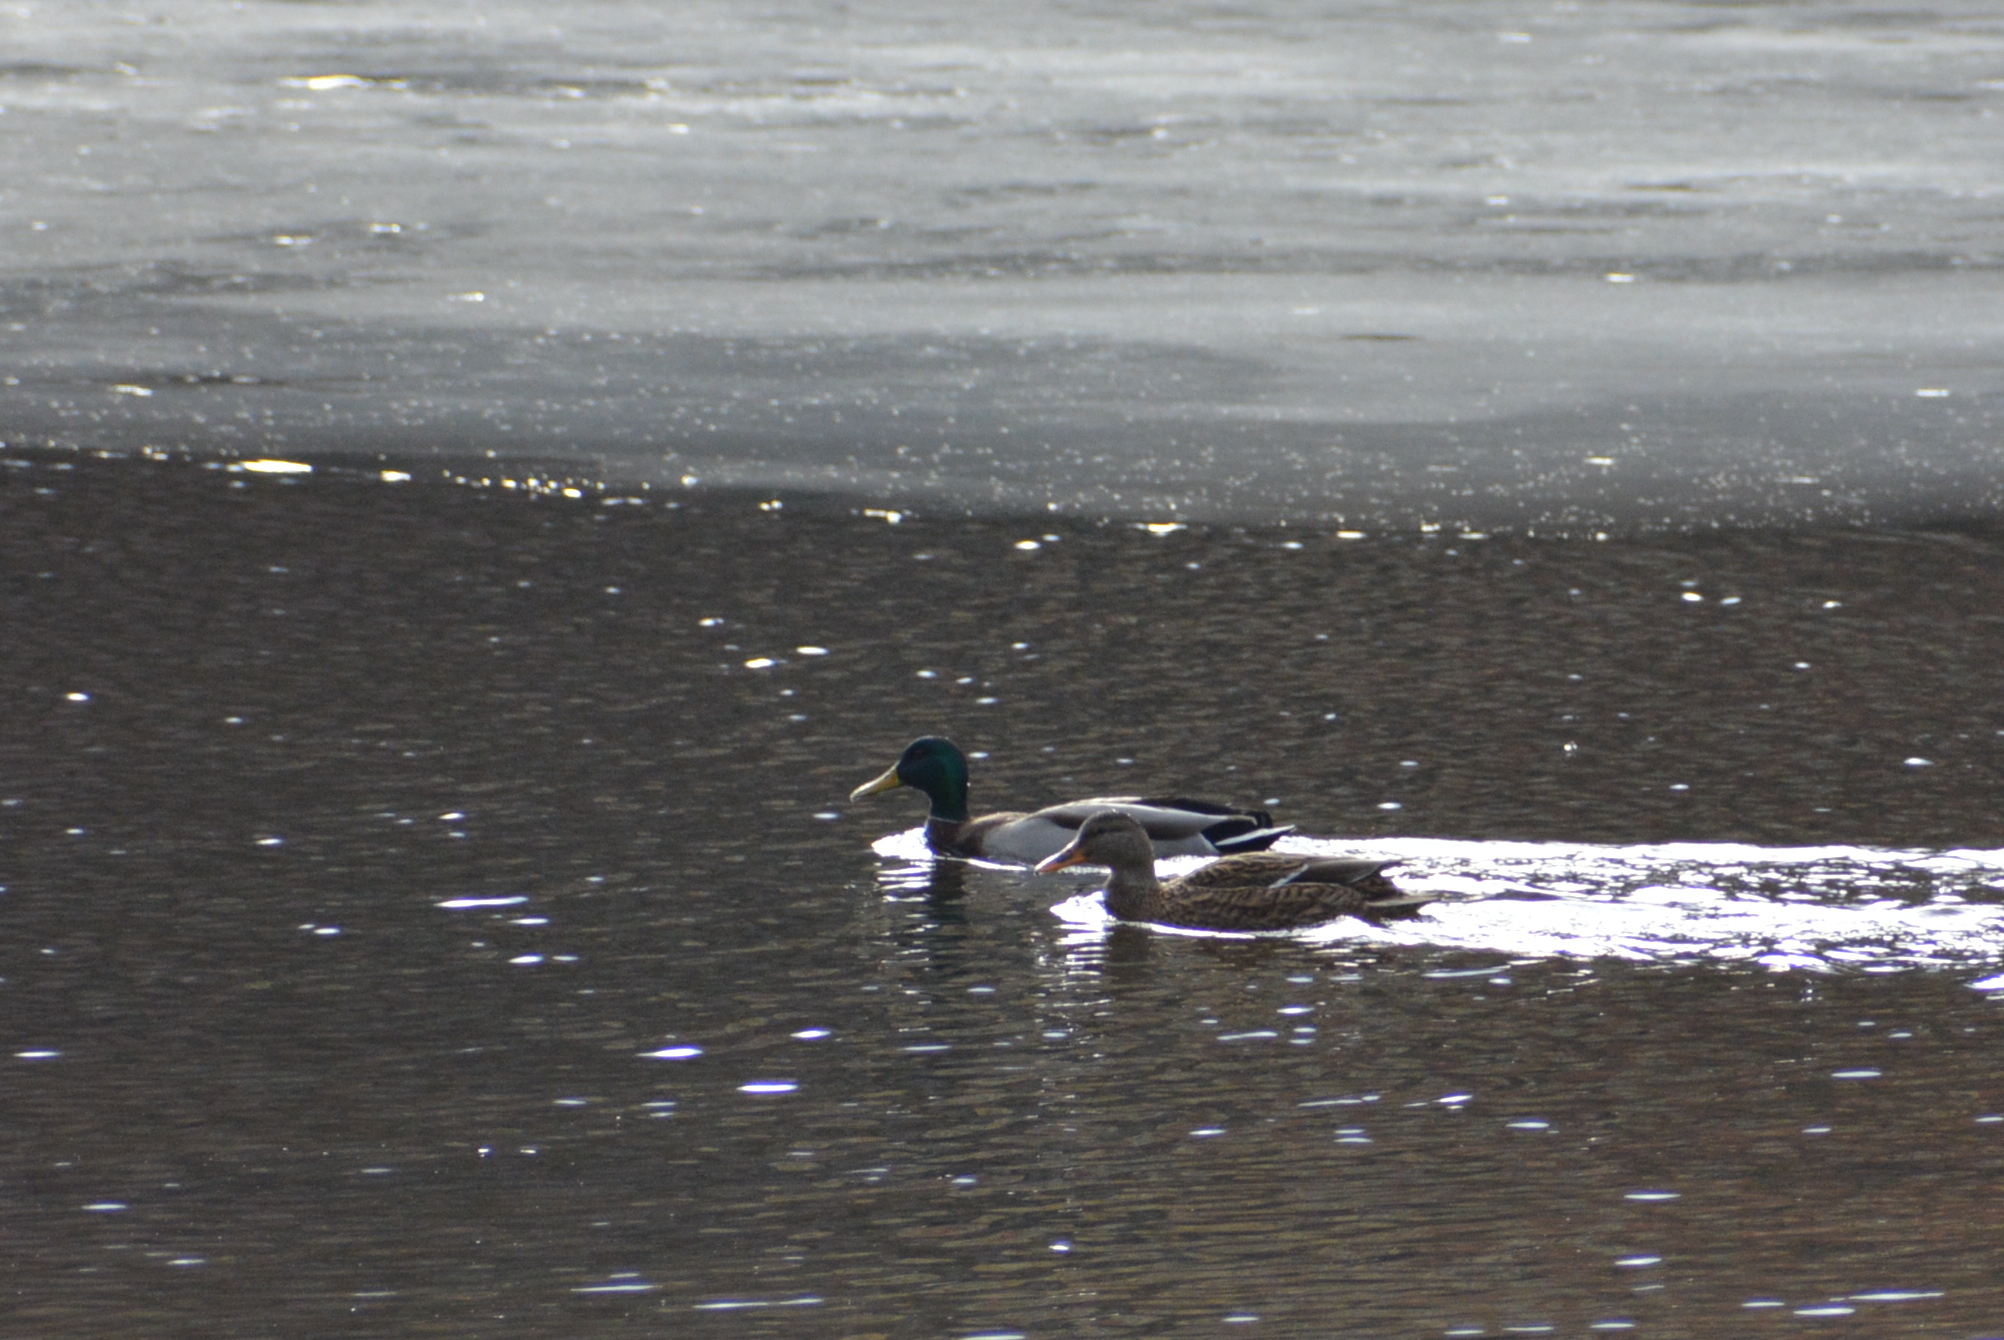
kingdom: Animalia
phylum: Chordata
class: Aves
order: Anseriformes
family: Anatidae
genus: Anas
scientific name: Anas platyrhynchos
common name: Mallard
